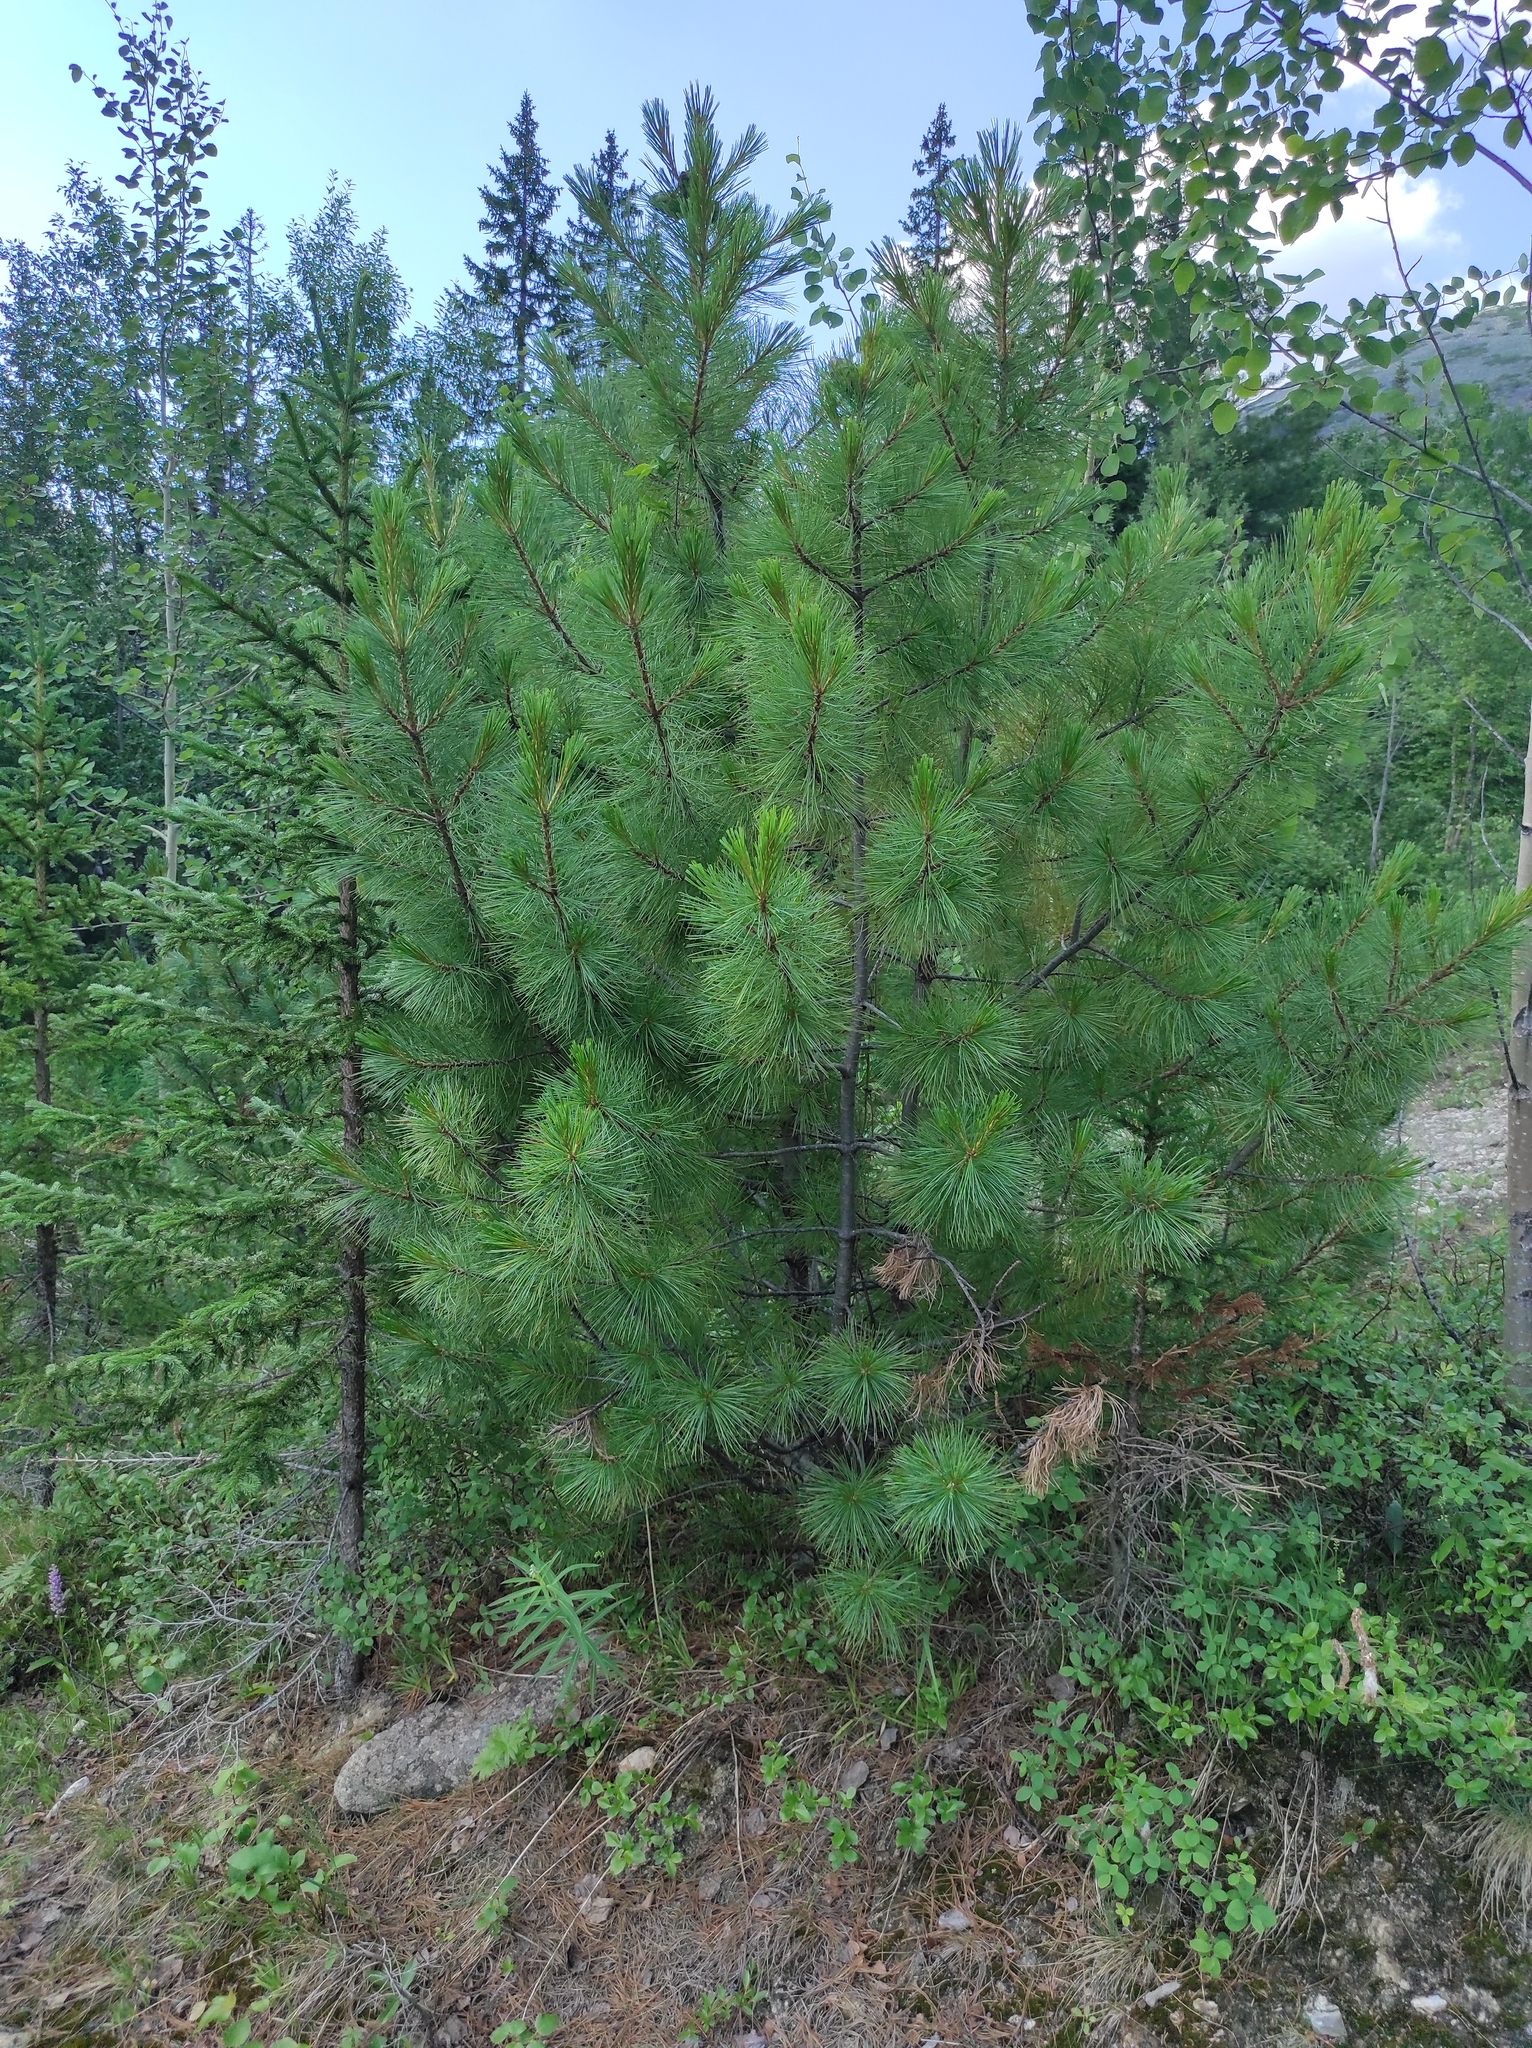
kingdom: Plantae
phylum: Tracheophyta
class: Pinopsida
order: Pinales
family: Pinaceae
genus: Pinus
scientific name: Pinus sibirica
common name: Siberian pine
